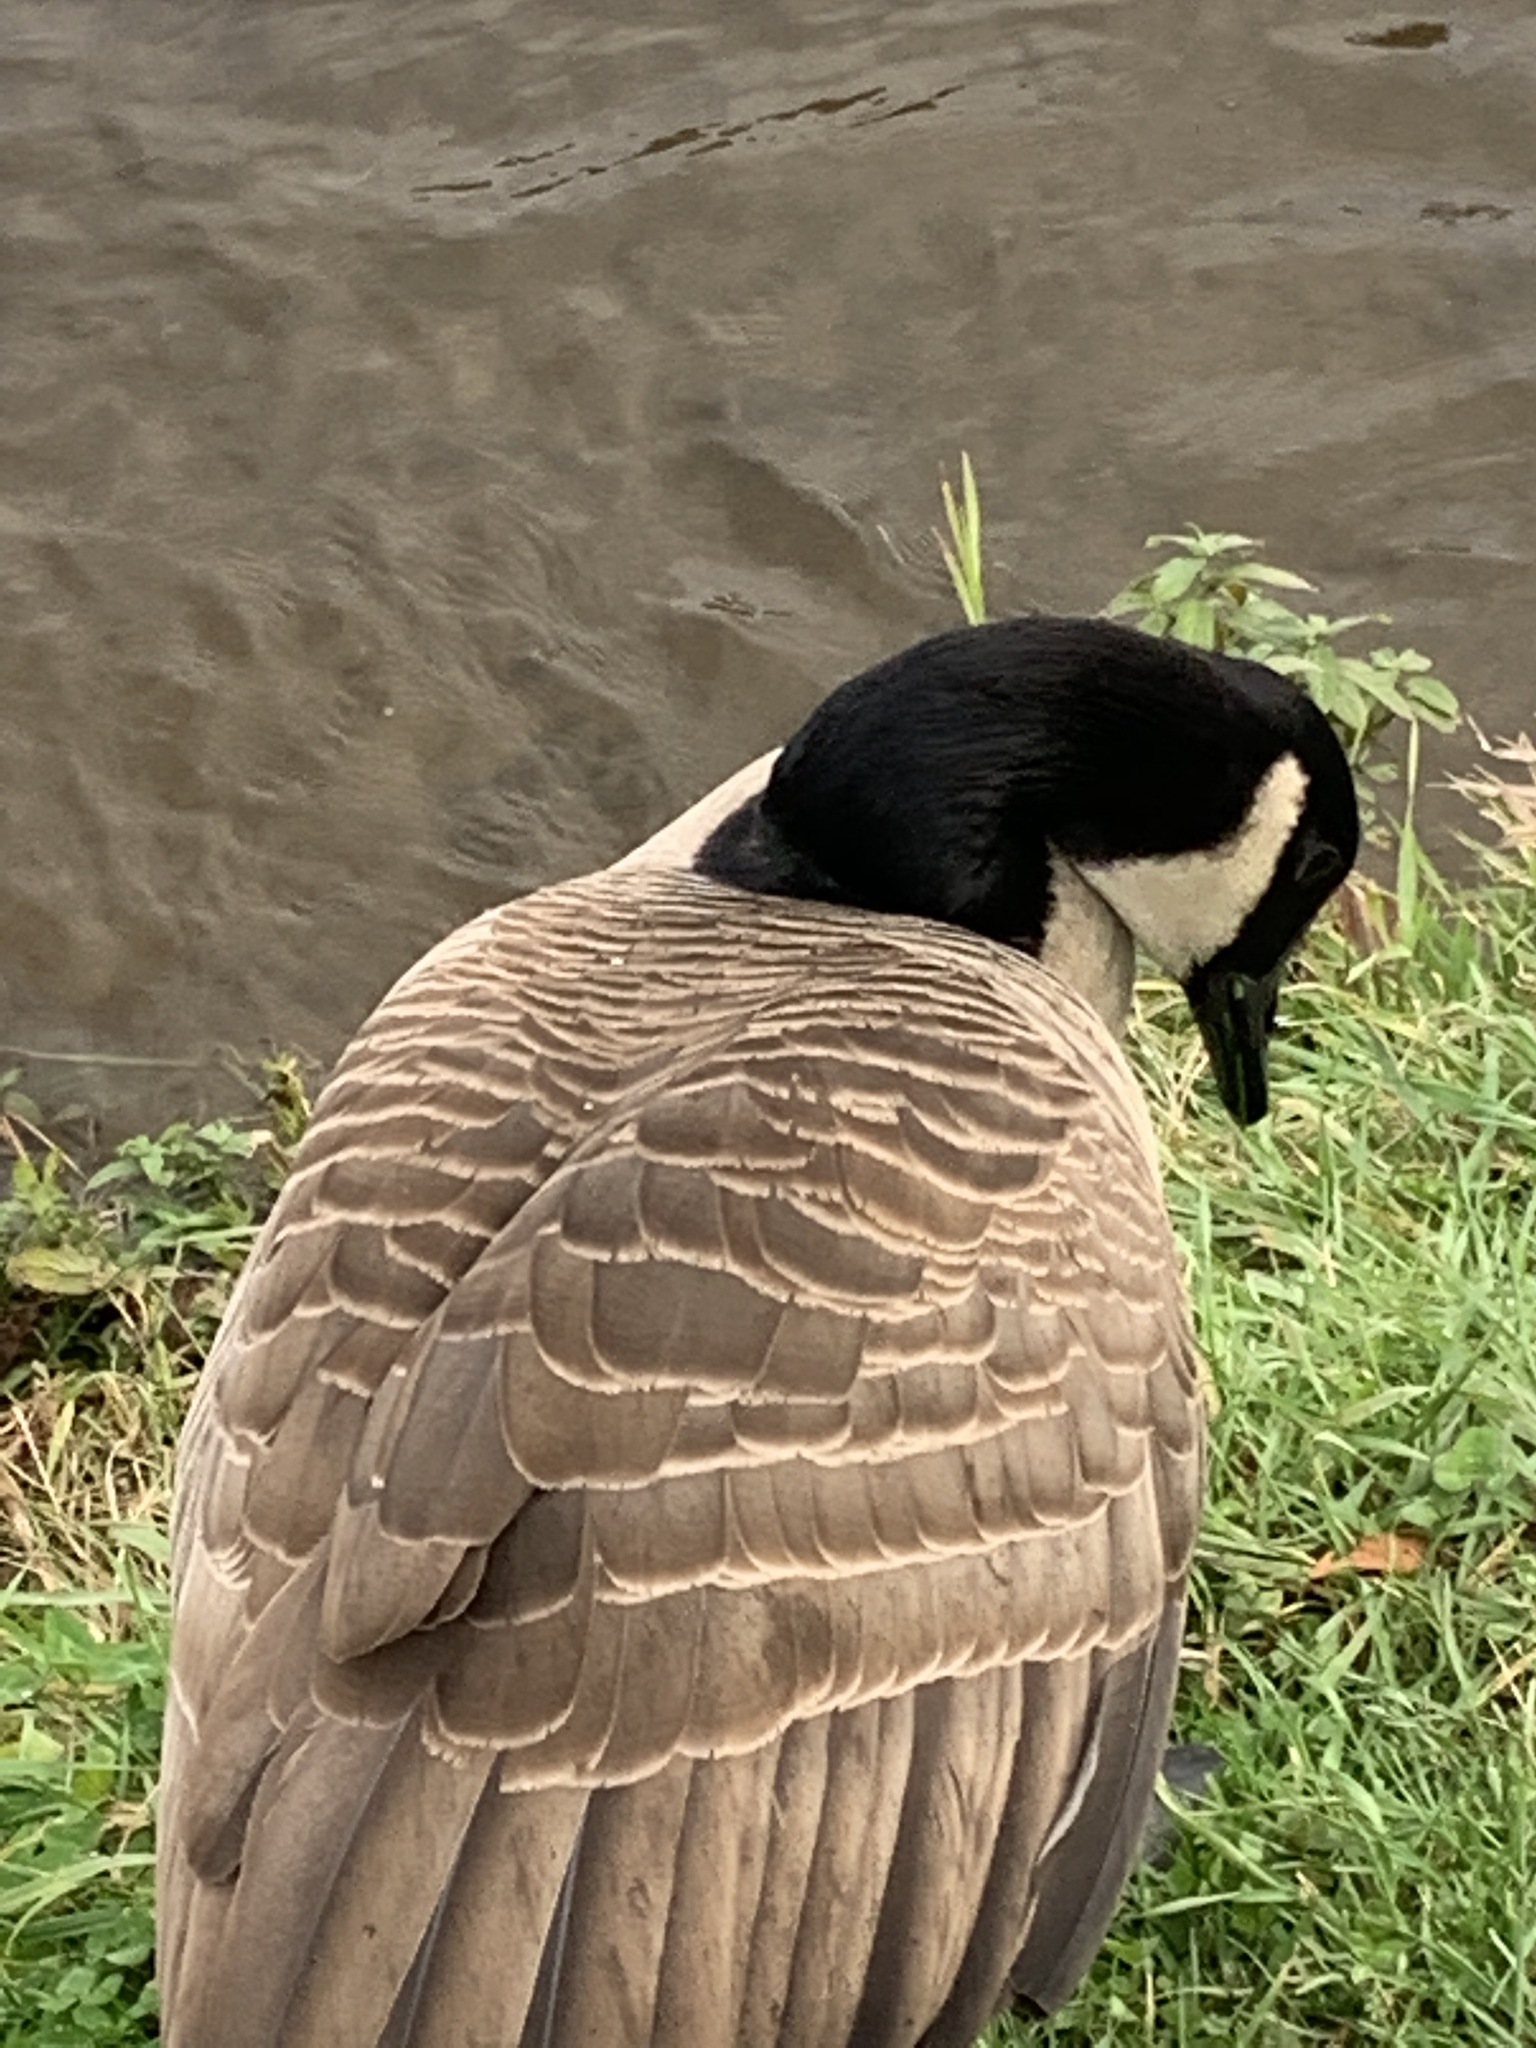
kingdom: Animalia
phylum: Chordata
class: Aves
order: Anseriformes
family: Anatidae
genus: Branta
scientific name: Branta canadensis
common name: Canada goose
